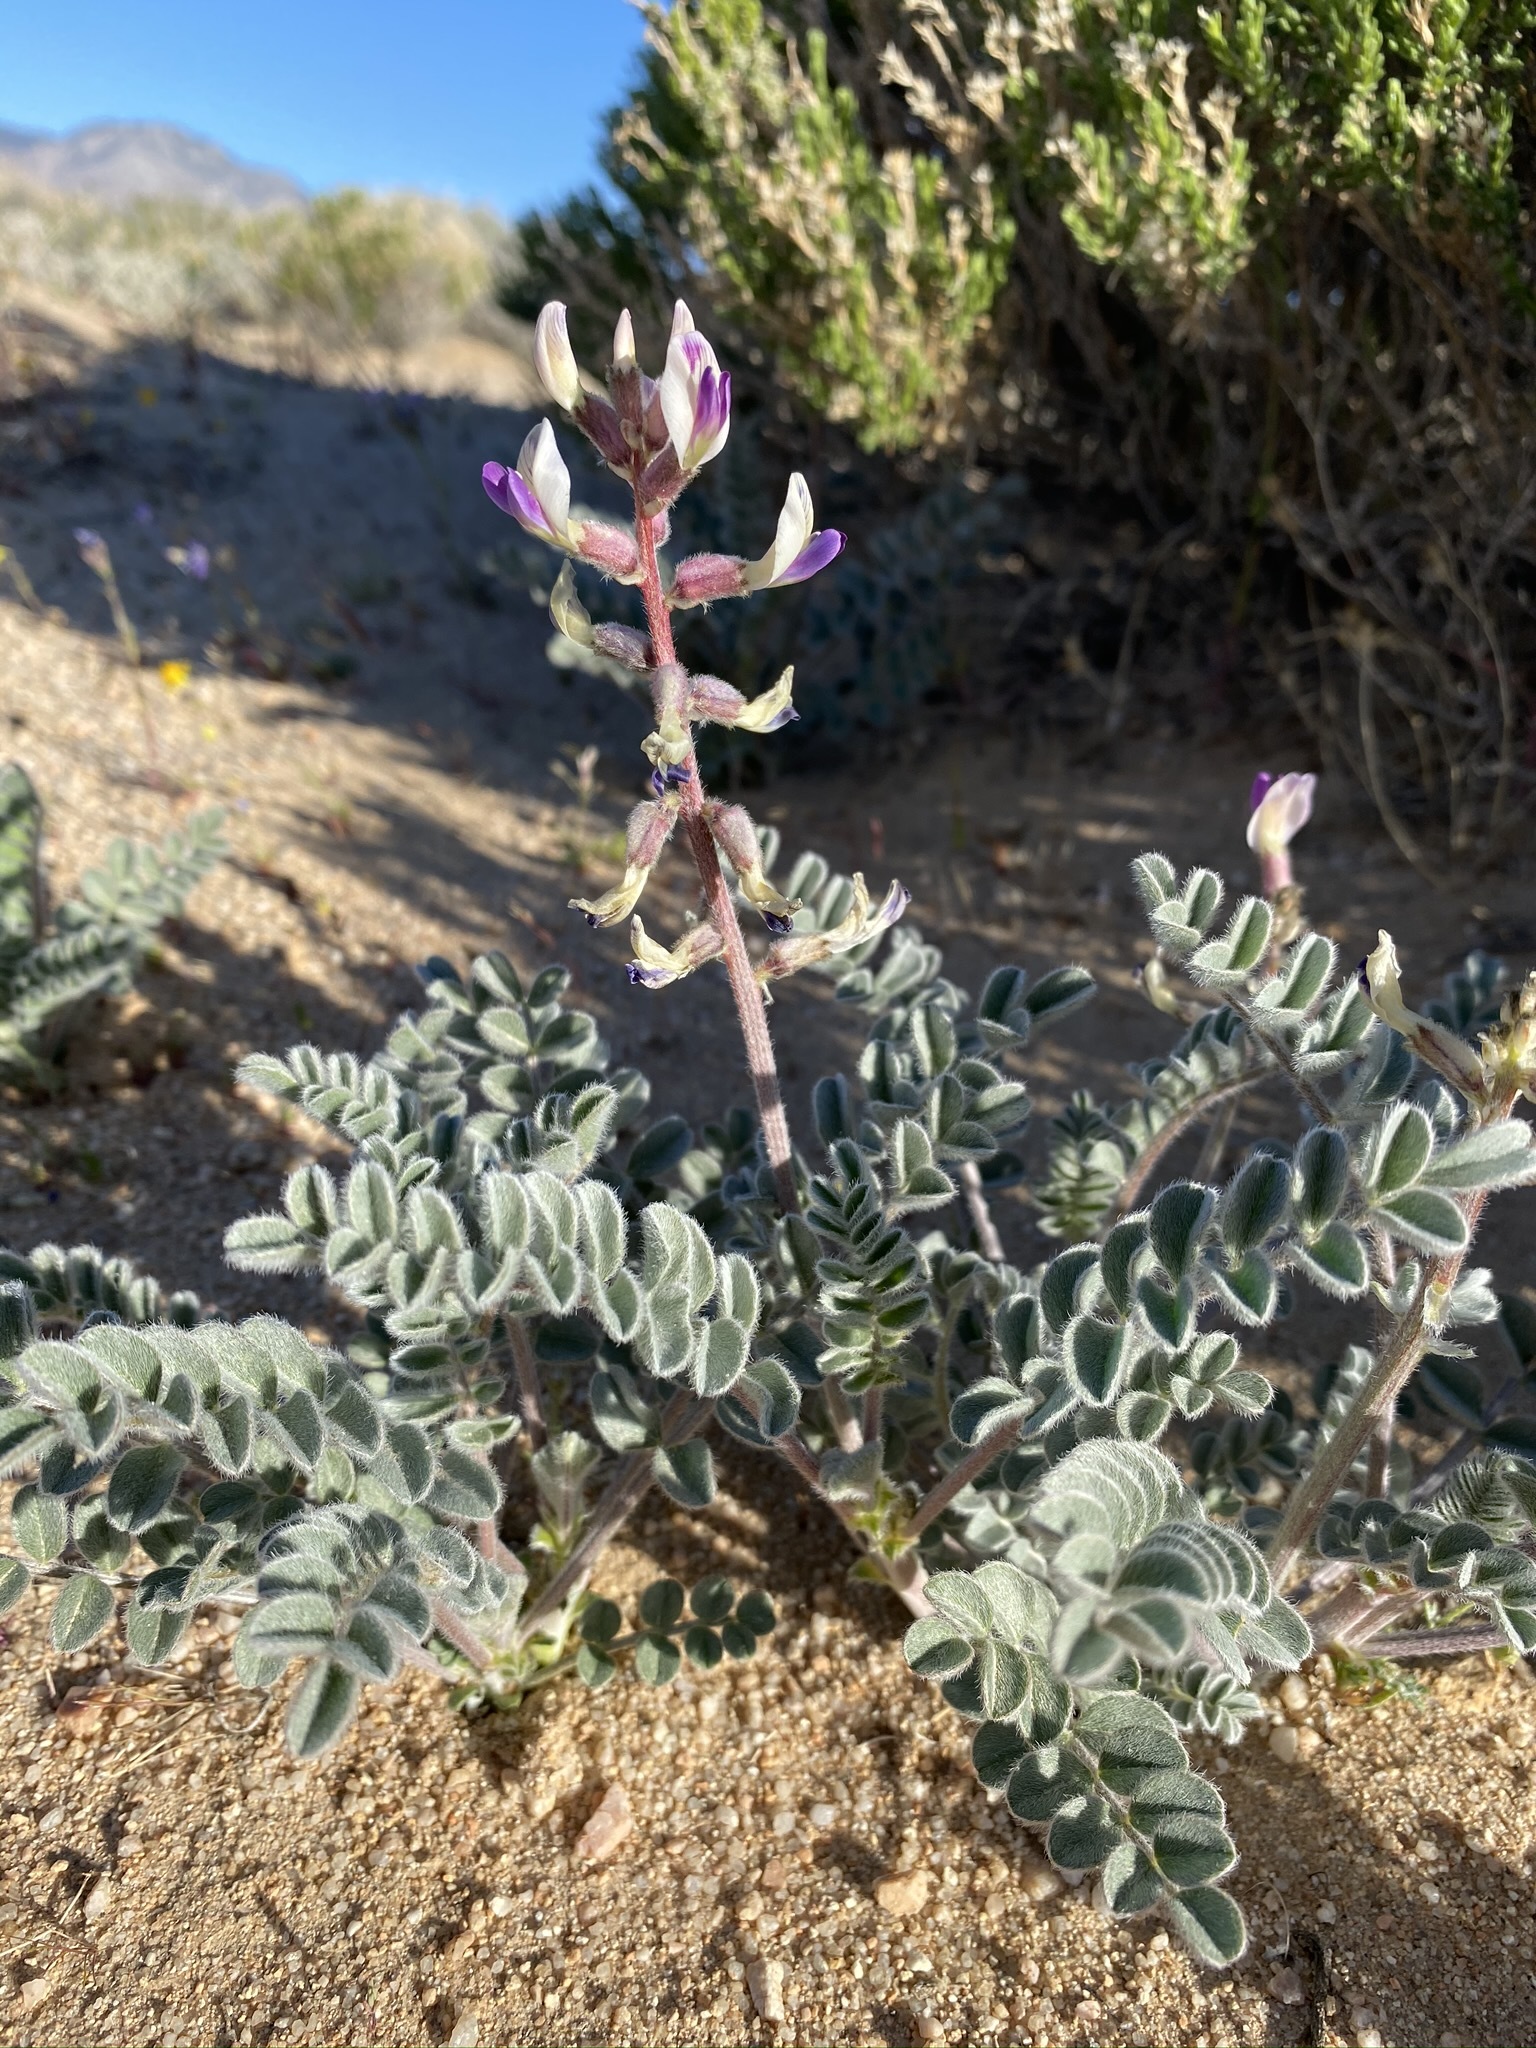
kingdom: Plantae
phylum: Tracheophyta
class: Magnoliopsida
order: Fabales
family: Fabaceae
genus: Astragalus
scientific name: Astragalus layneae
